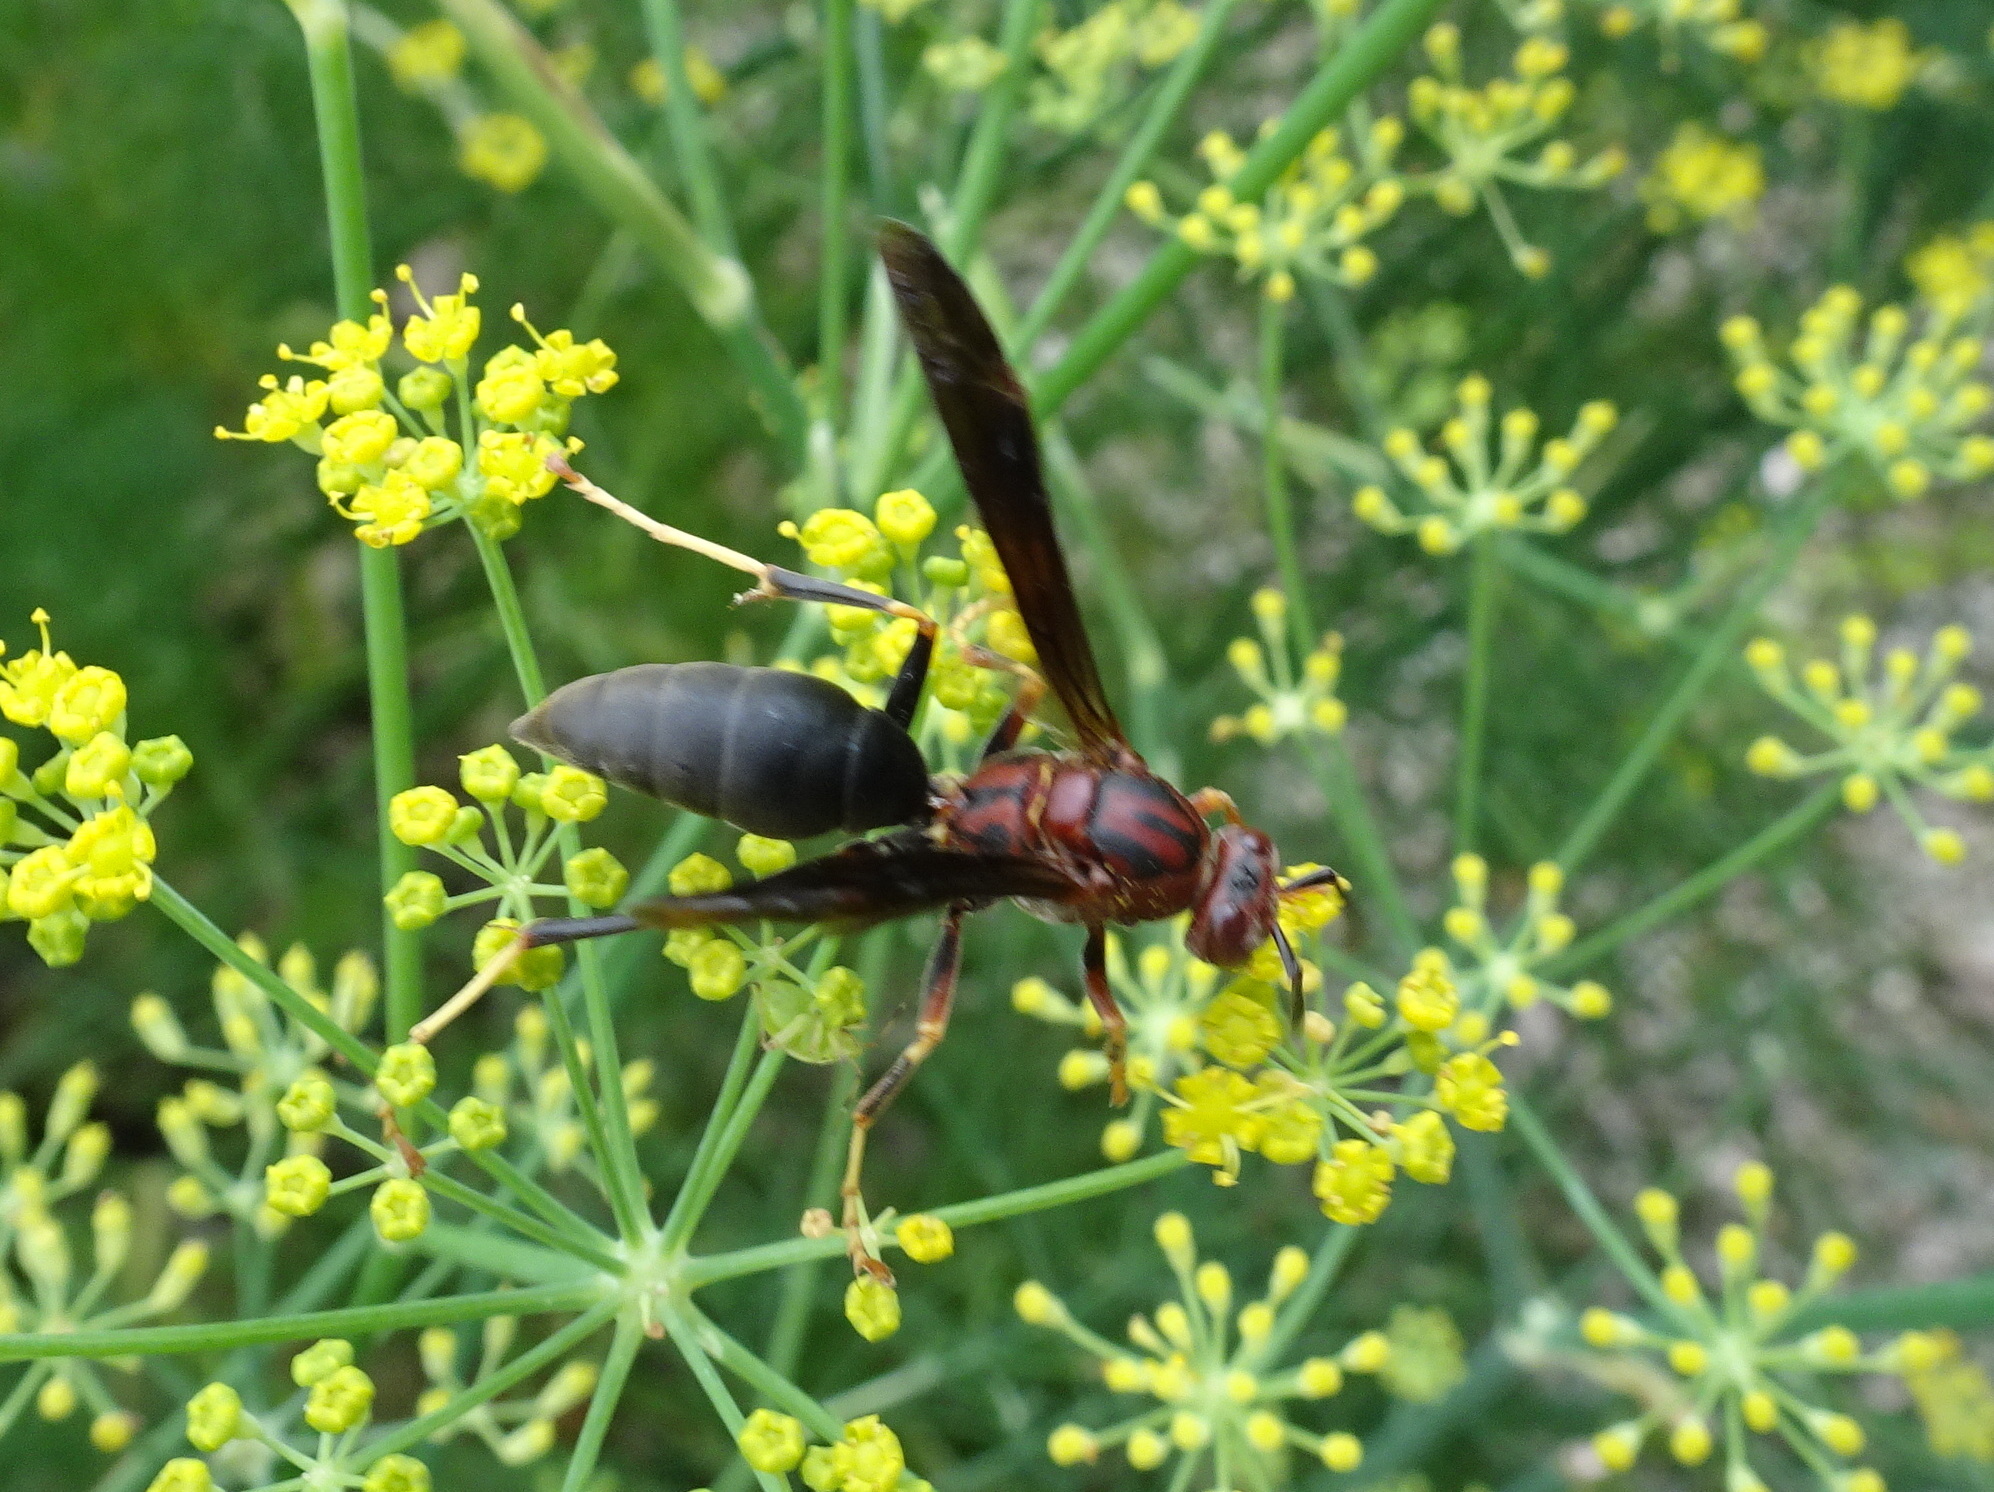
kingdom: Animalia
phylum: Arthropoda
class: Insecta
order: Hymenoptera
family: Eumenidae
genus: Polistes
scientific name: Polistes metricus
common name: Metric paper wasp
